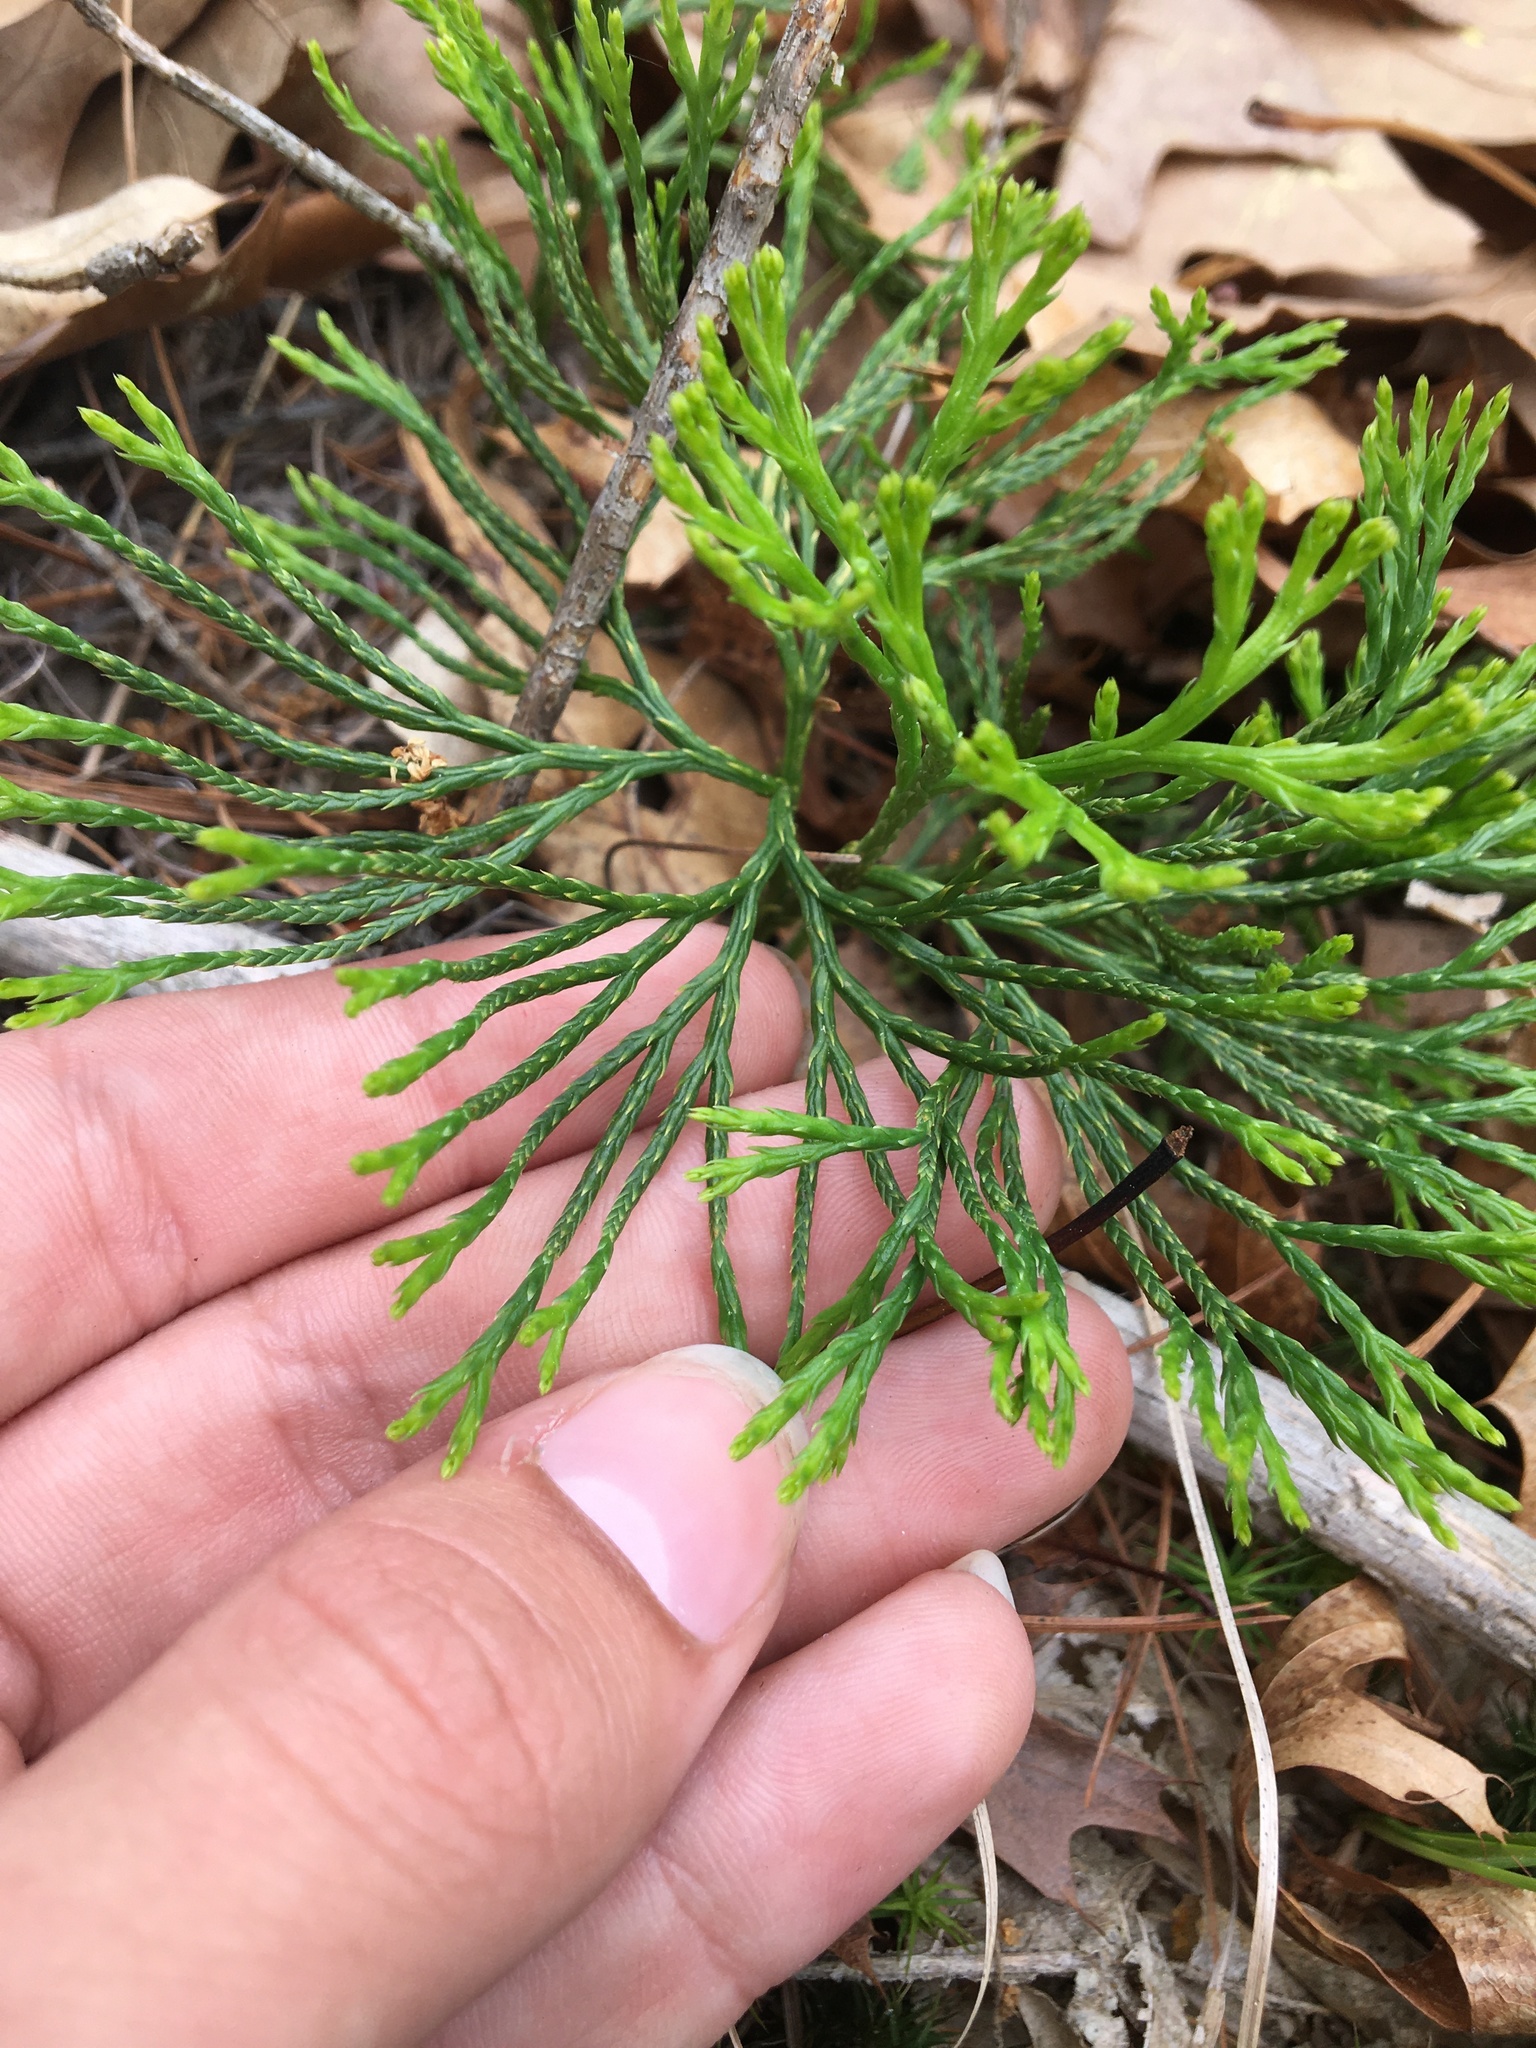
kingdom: Plantae
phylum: Tracheophyta
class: Lycopodiopsida
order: Lycopodiales
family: Lycopodiaceae
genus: Diphasiastrum
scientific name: Diphasiastrum tristachyum
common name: Blue ground-cedar
